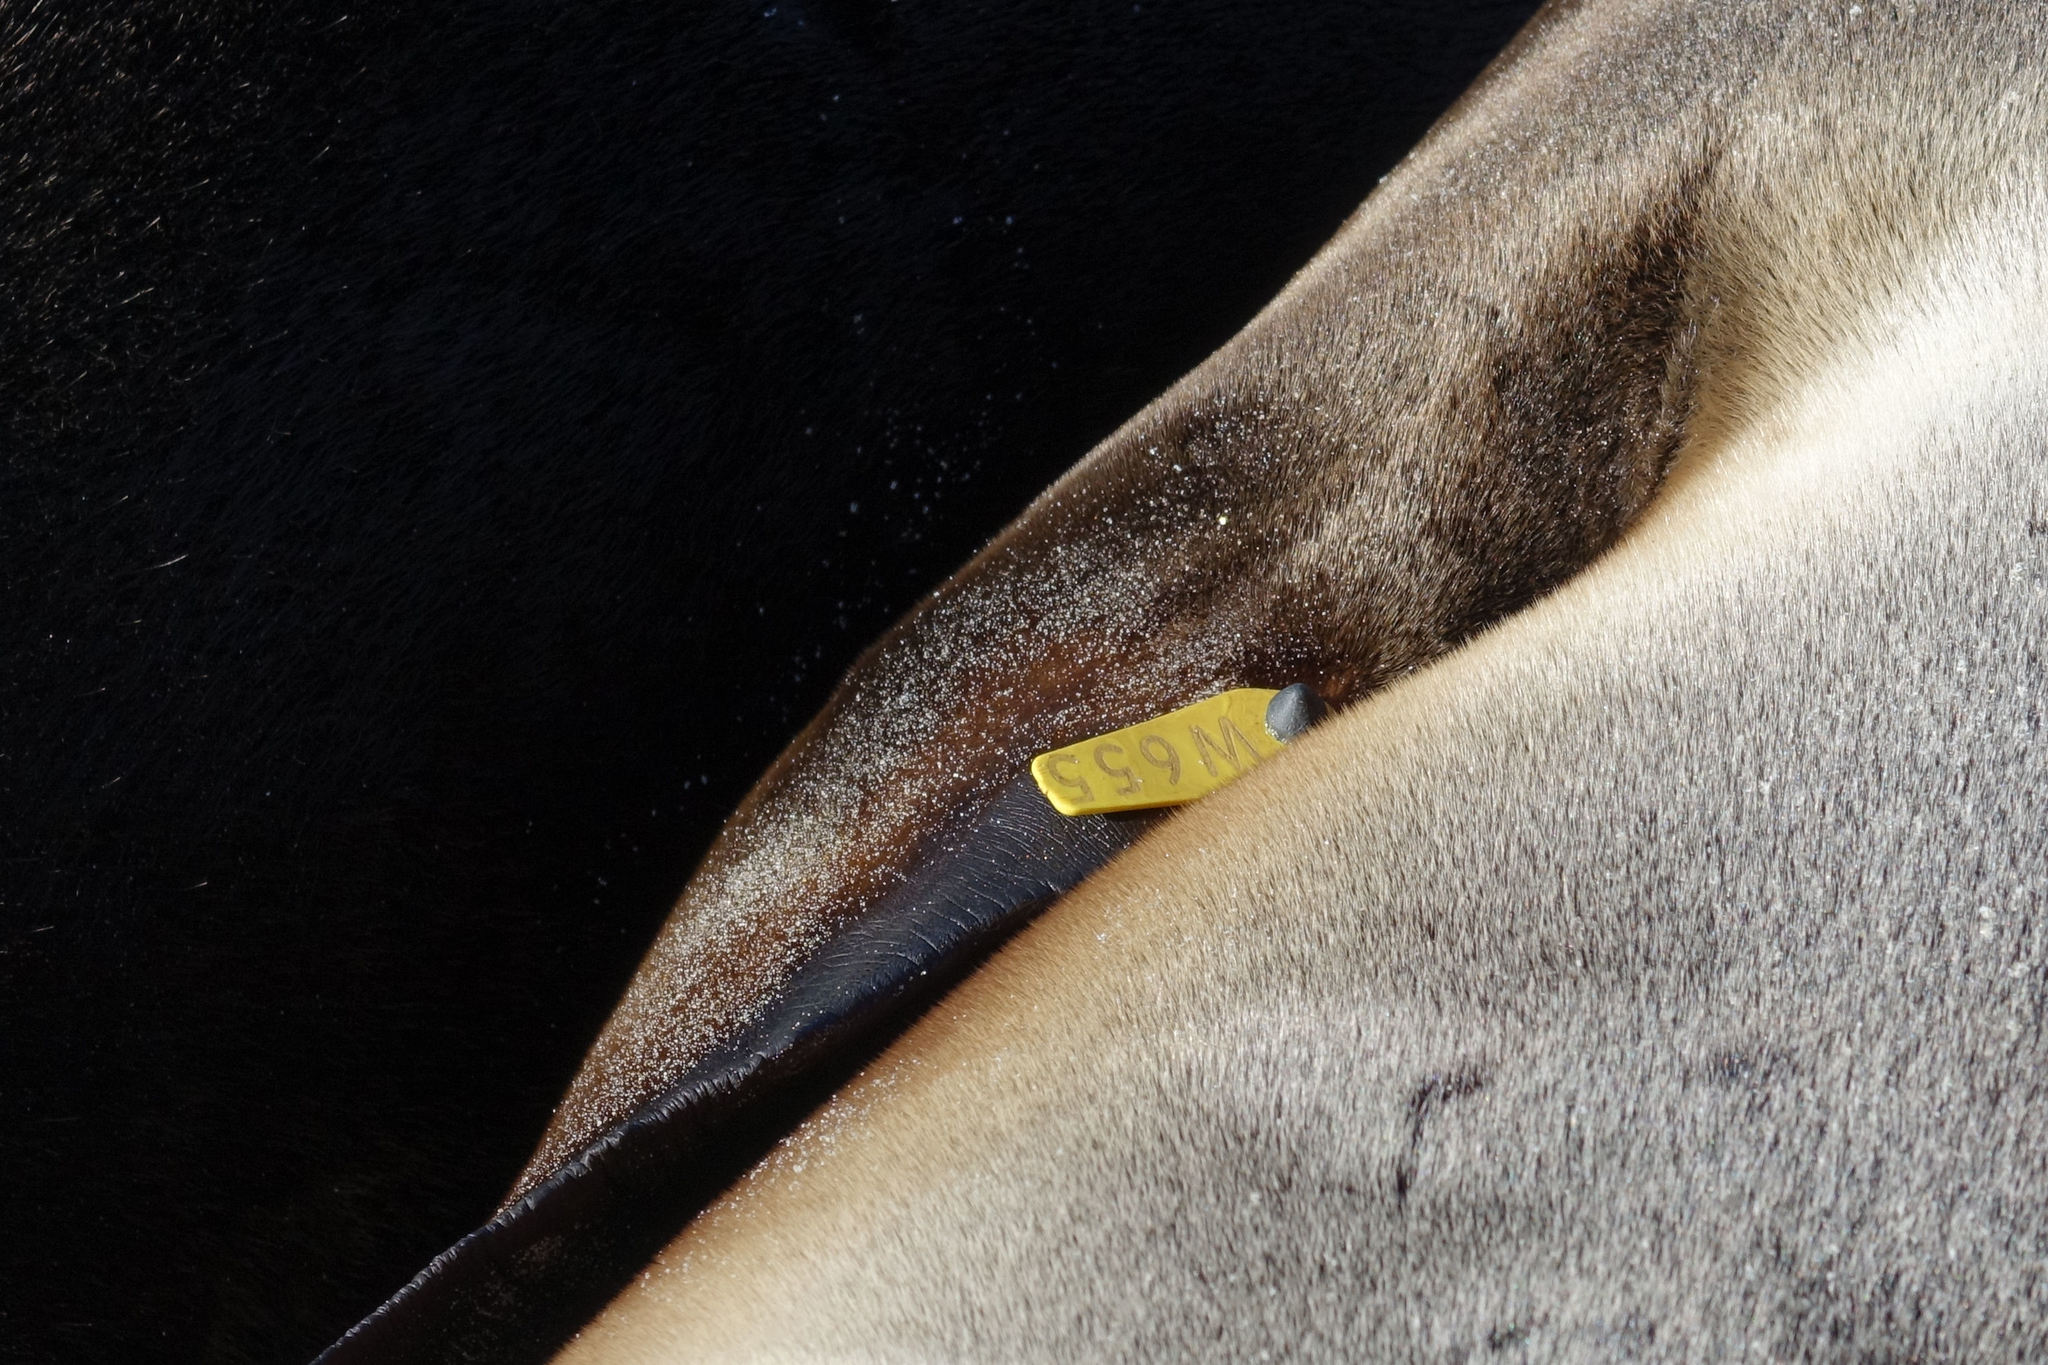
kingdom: Animalia
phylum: Chordata
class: Mammalia
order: Carnivora
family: Otariidae
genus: Phocarctos
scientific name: Phocarctos hookeri
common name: New zealand sea lion
